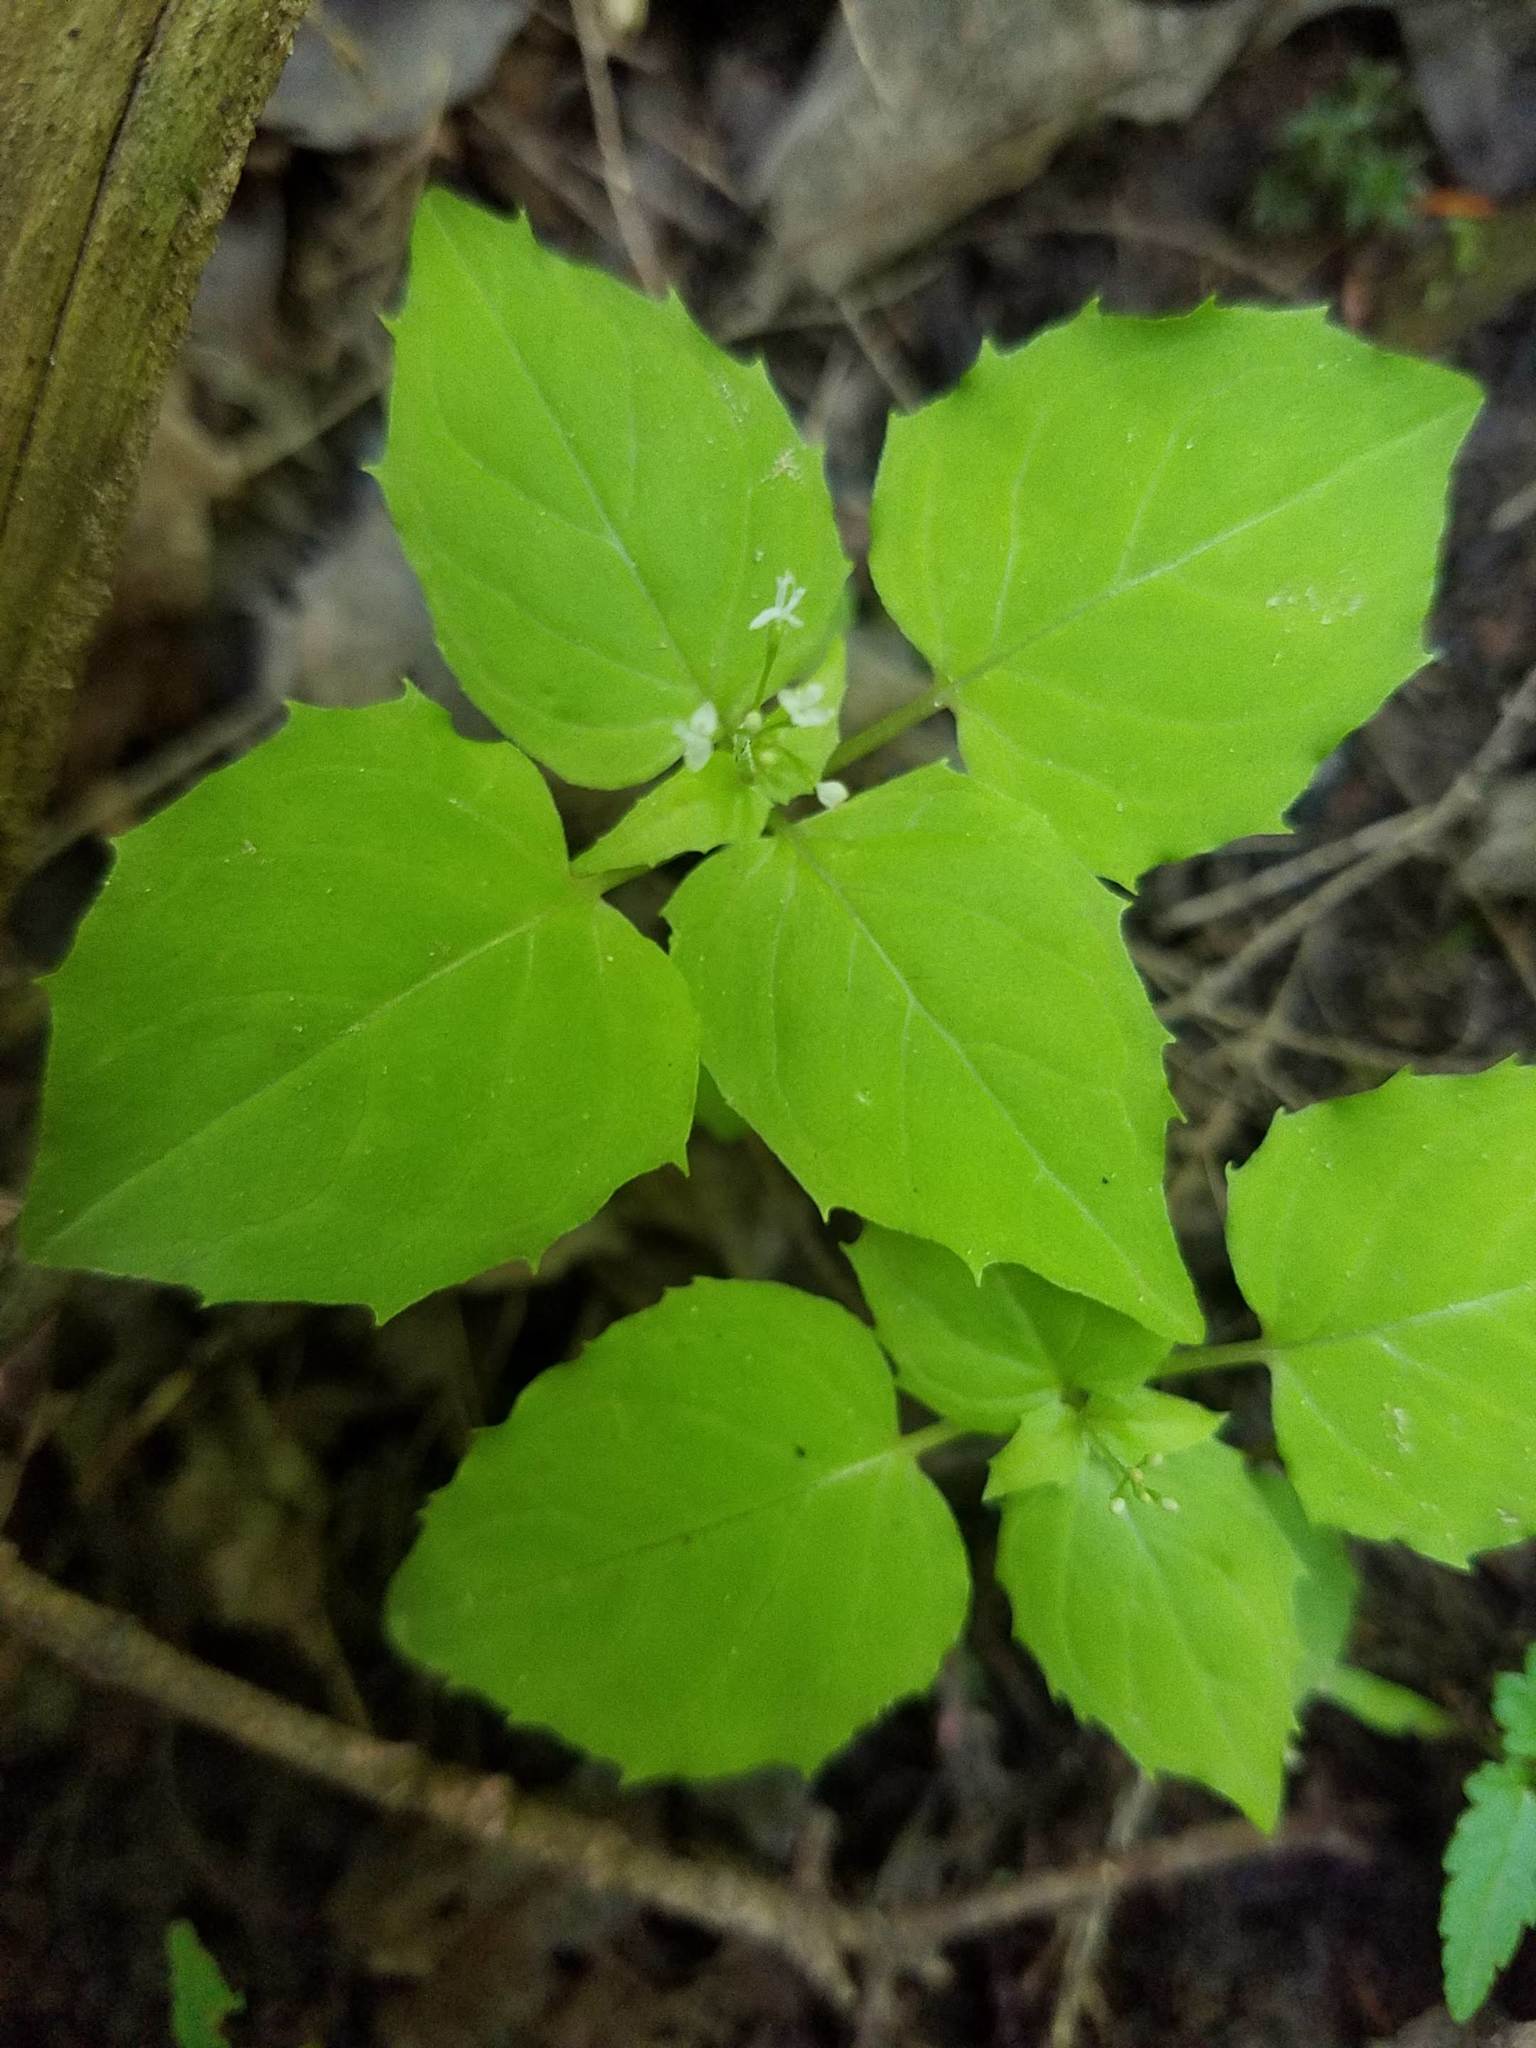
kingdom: Plantae
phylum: Tracheophyta
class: Magnoliopsida
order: Myrtales
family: Onagraceae
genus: Circaea
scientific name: Circaea alpina
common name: Alpine enchanter's-nightshade
